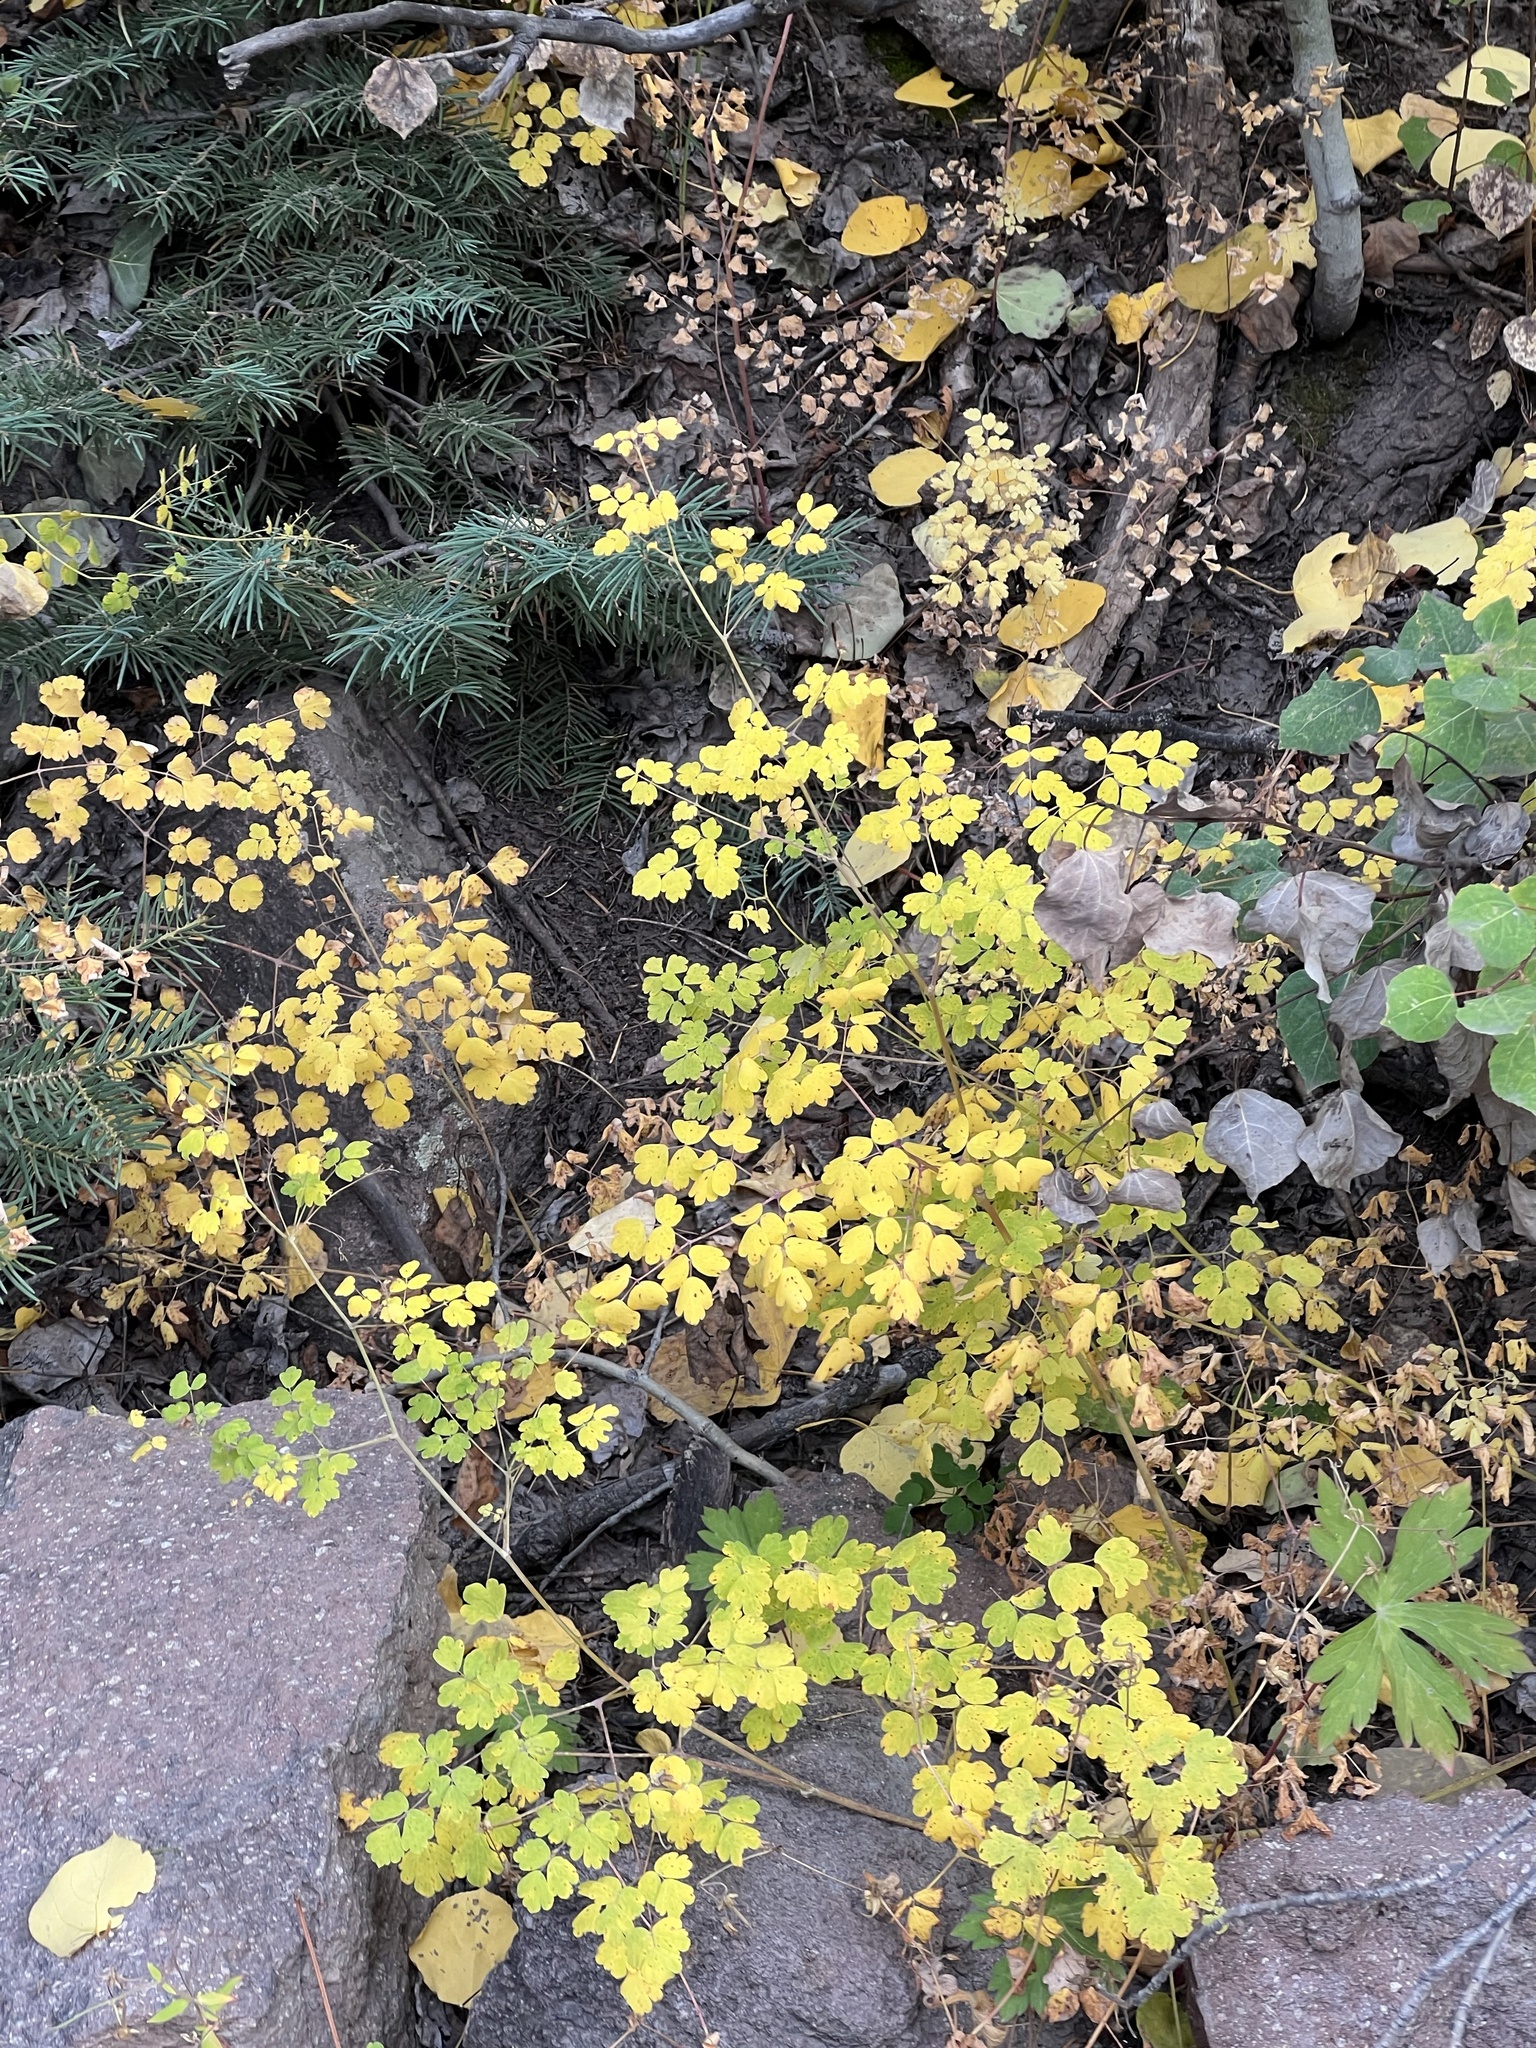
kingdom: Plantae
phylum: Tracheophyta
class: Magnoliopsida
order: Ranunculales
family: Ranunculaceae
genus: Thalictrum
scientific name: Thalictrum fendleri
